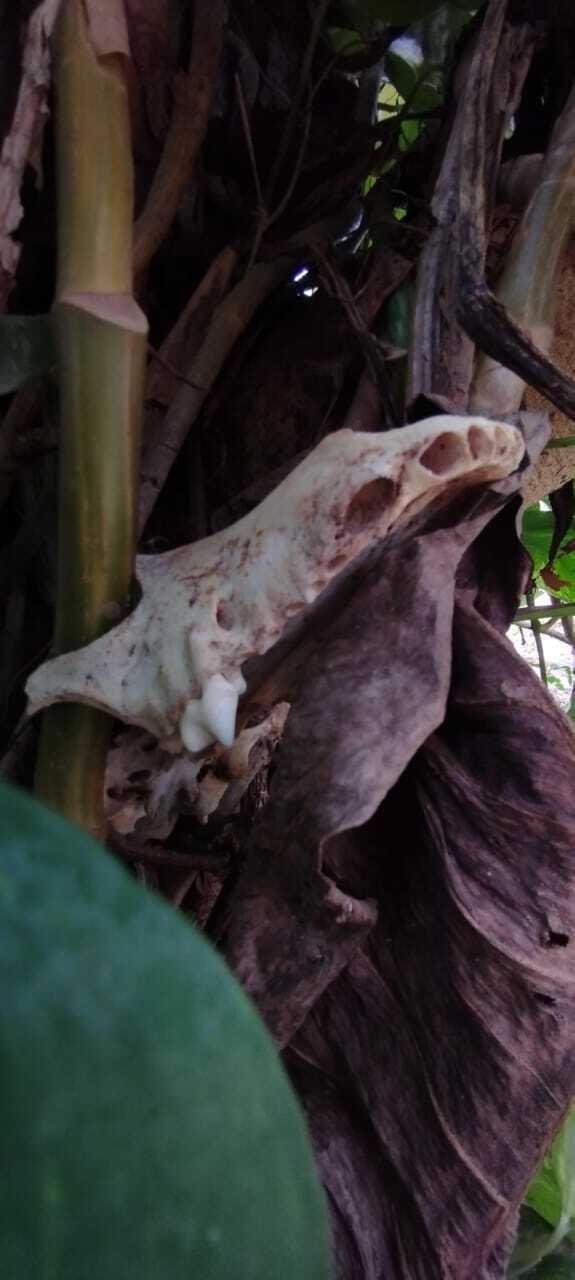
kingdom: Animalia
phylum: Chordata
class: Mammalia
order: Carnivora
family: Canidae
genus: Canis
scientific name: Canis lupus
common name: Gray wolf
